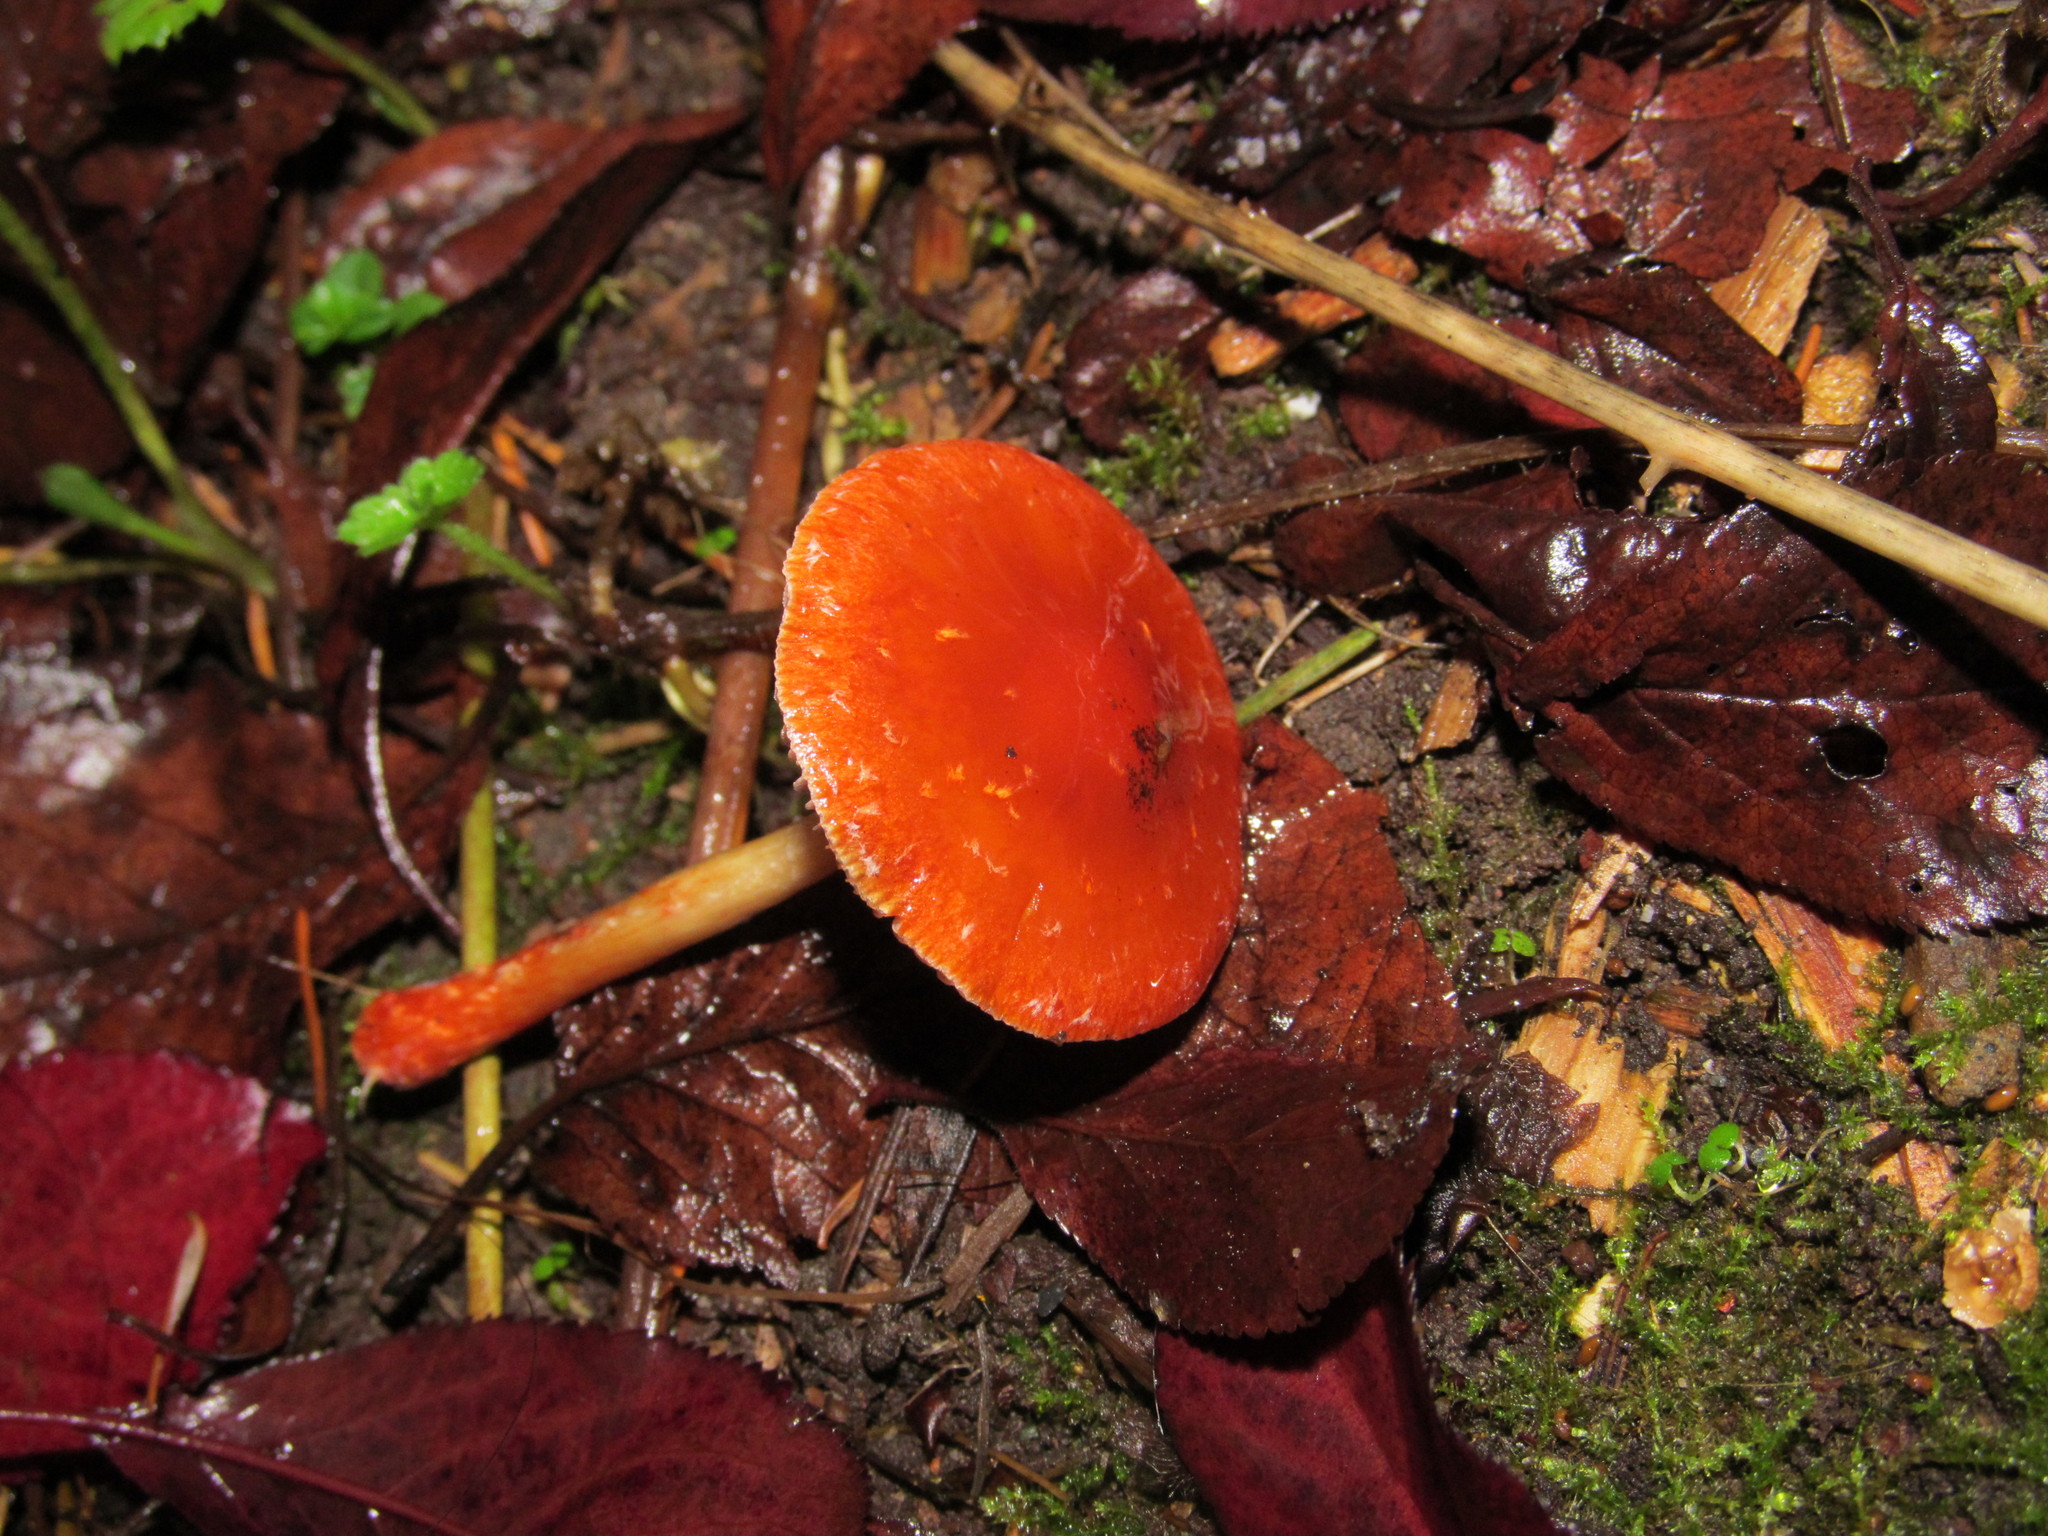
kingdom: Fungi
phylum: Basidiomycota
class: Agaricomycetes
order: Agaricales
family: Strophariaceae
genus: Leratiomyces
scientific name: Leratiomyces ceres
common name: Redlead roundhead
